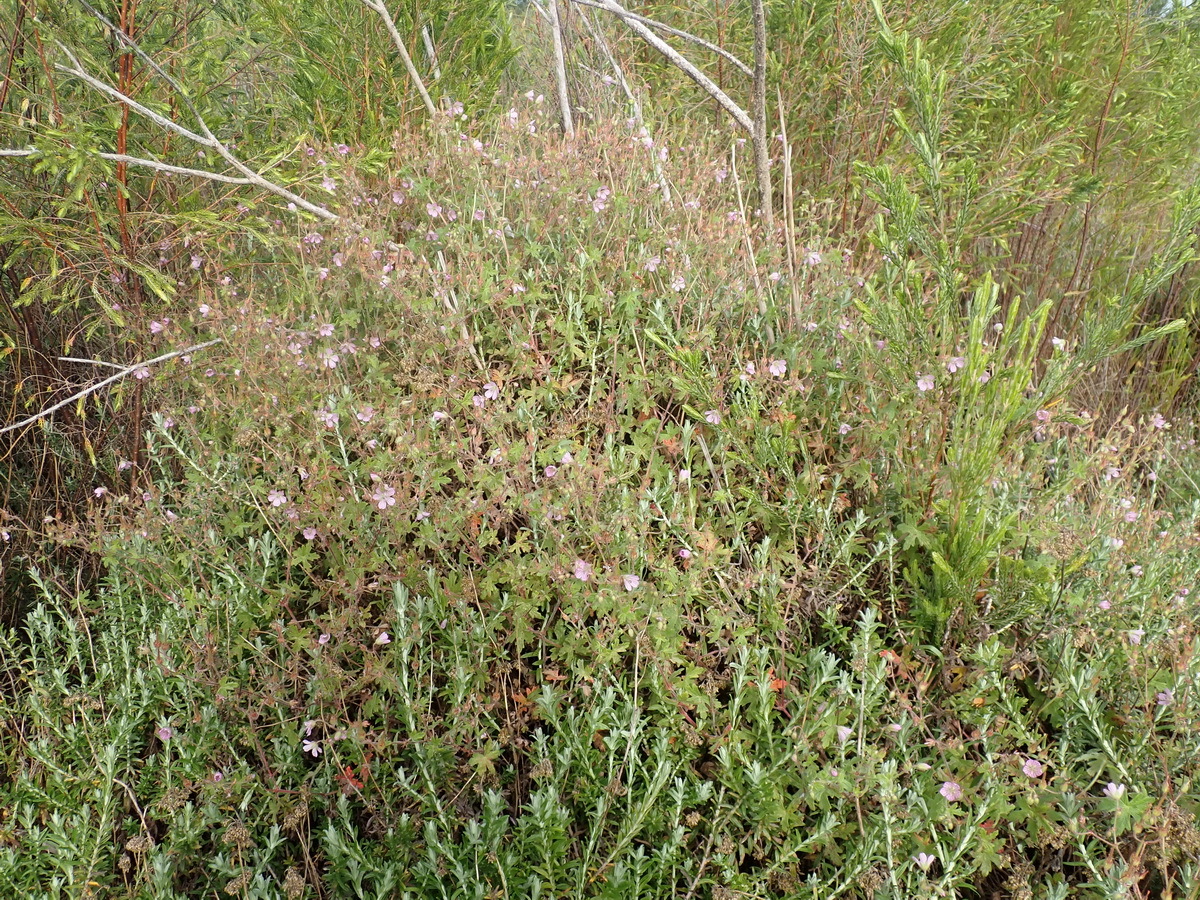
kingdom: Plantae
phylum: Tracheophyta
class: Magnoliopsida
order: Geraniales
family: Geraniaceae
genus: Geranium
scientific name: Geranium ornithopodon
